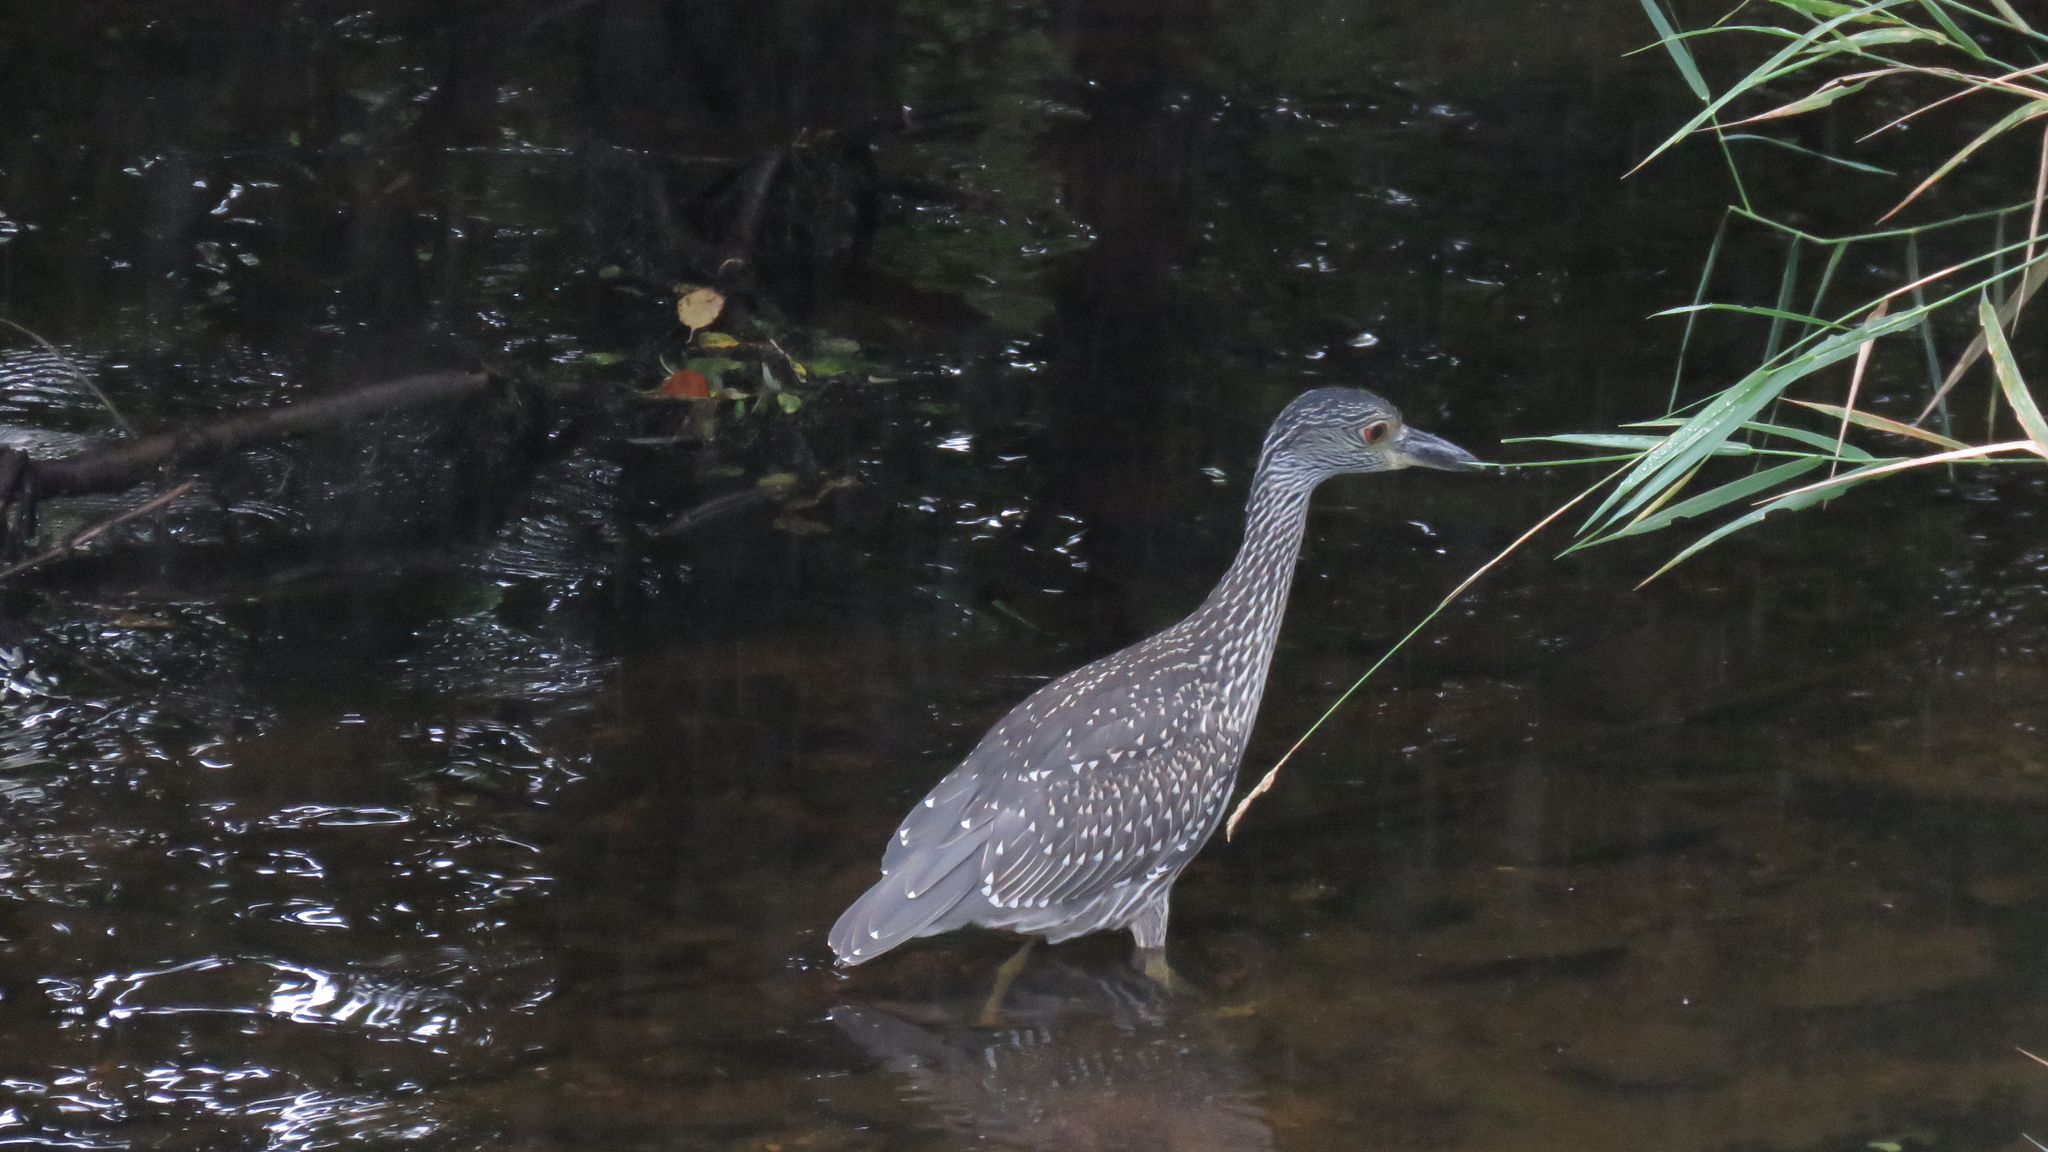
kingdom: Animalia
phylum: Chordata
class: Aves
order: Pelecaniformes
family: Ardeidae
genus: Nyctanassa
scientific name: Nyctanassa violacea
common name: Yellow-crowned night heron
